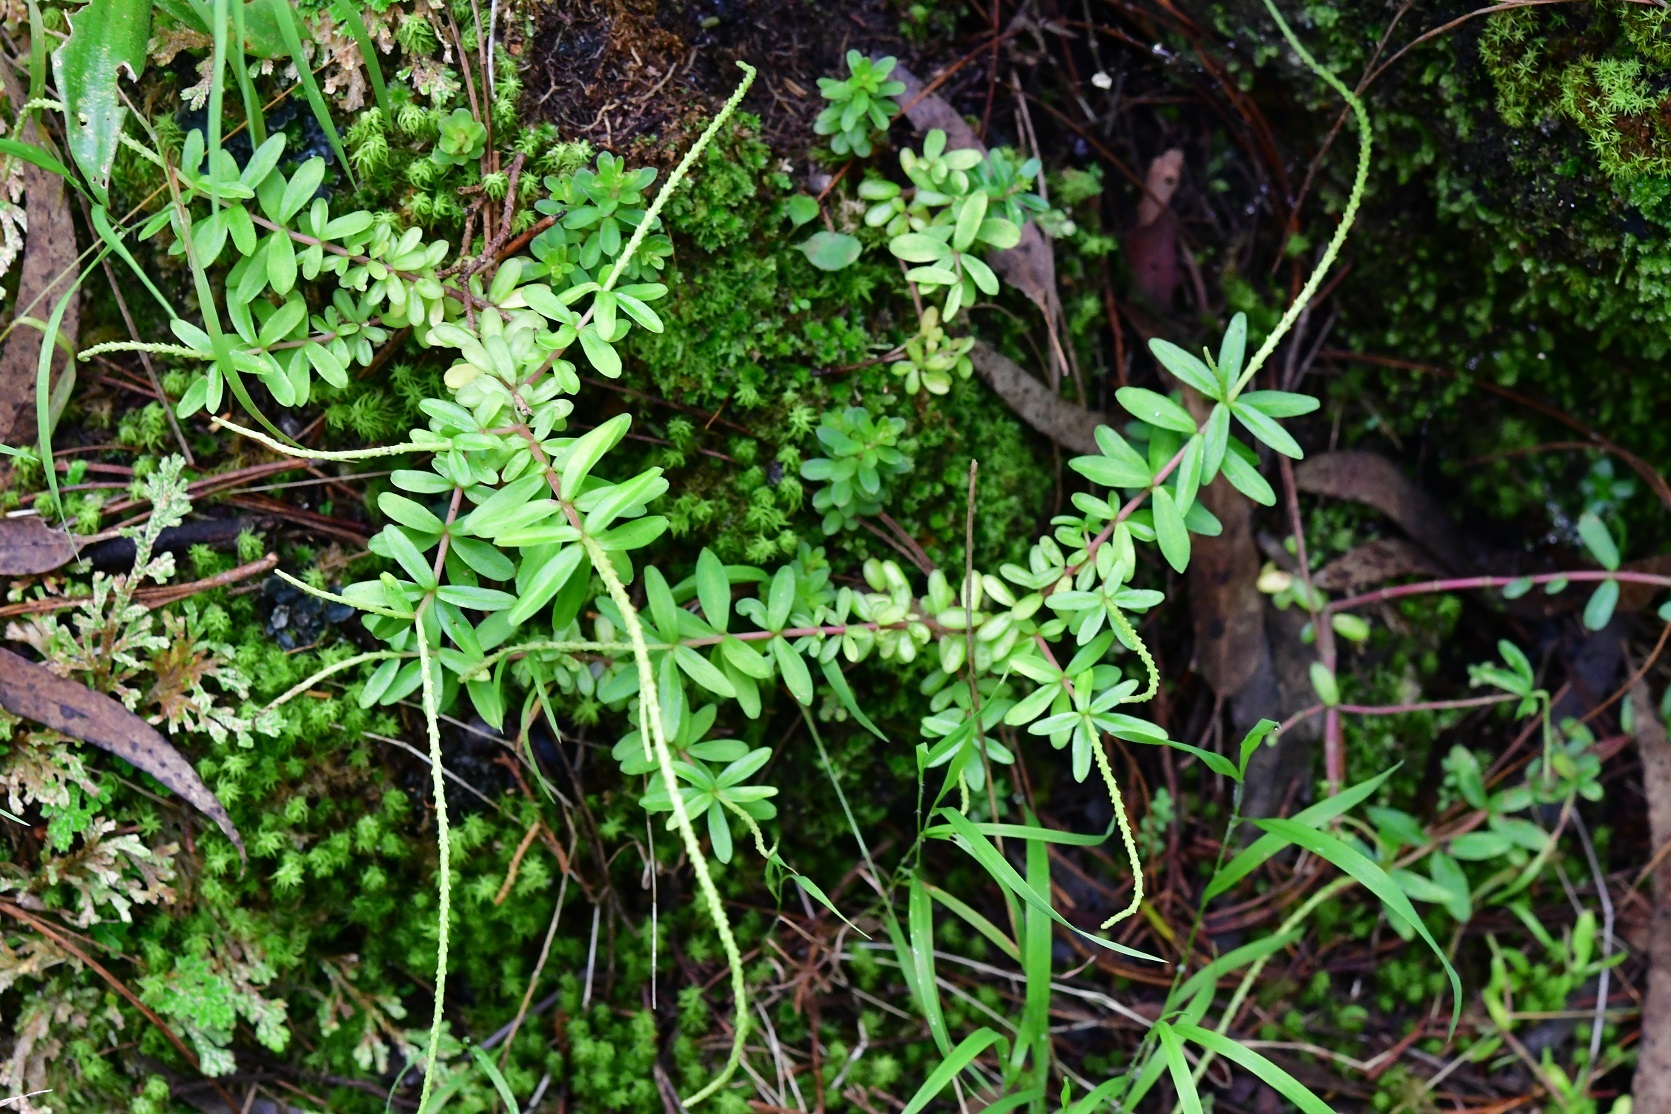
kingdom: Plantae
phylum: Tracheophyta
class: Magnoliopsida
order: Piperales
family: Piperaceae
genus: Peperomia
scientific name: Peperomia leptophylla
